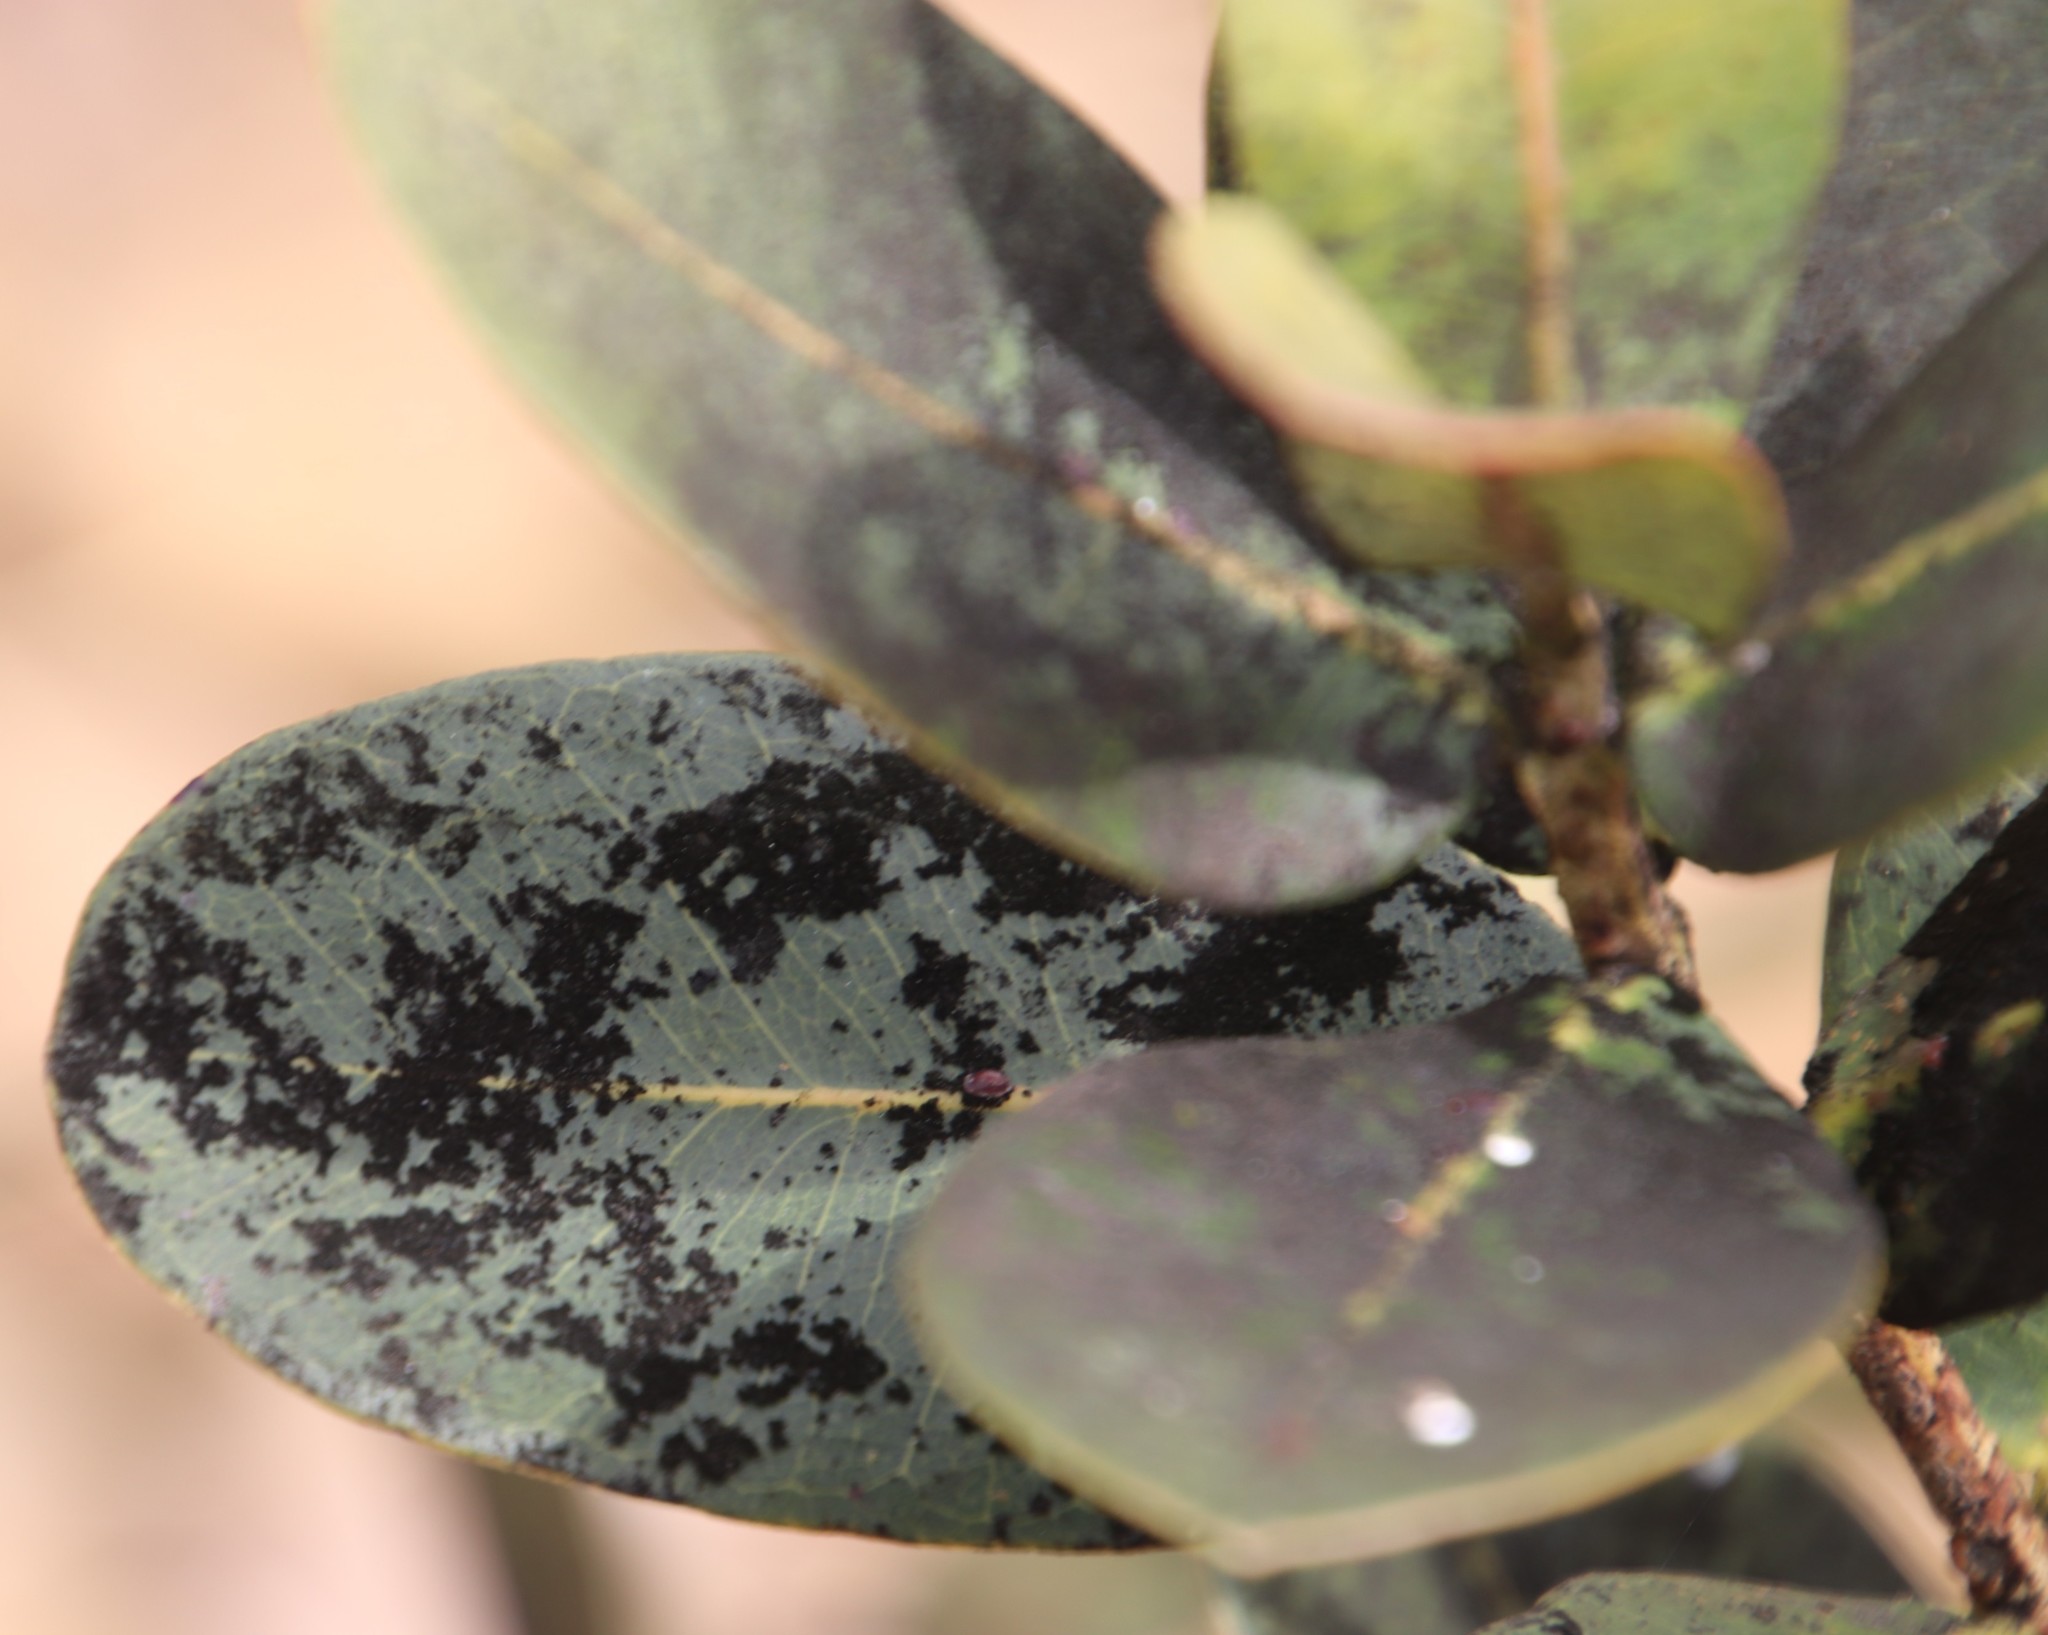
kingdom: Plantae
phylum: Tracheophyta
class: Magnoliopsida
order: Myrtales
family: Myrtaceae
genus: Syzygium
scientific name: Syzygium cordatum
